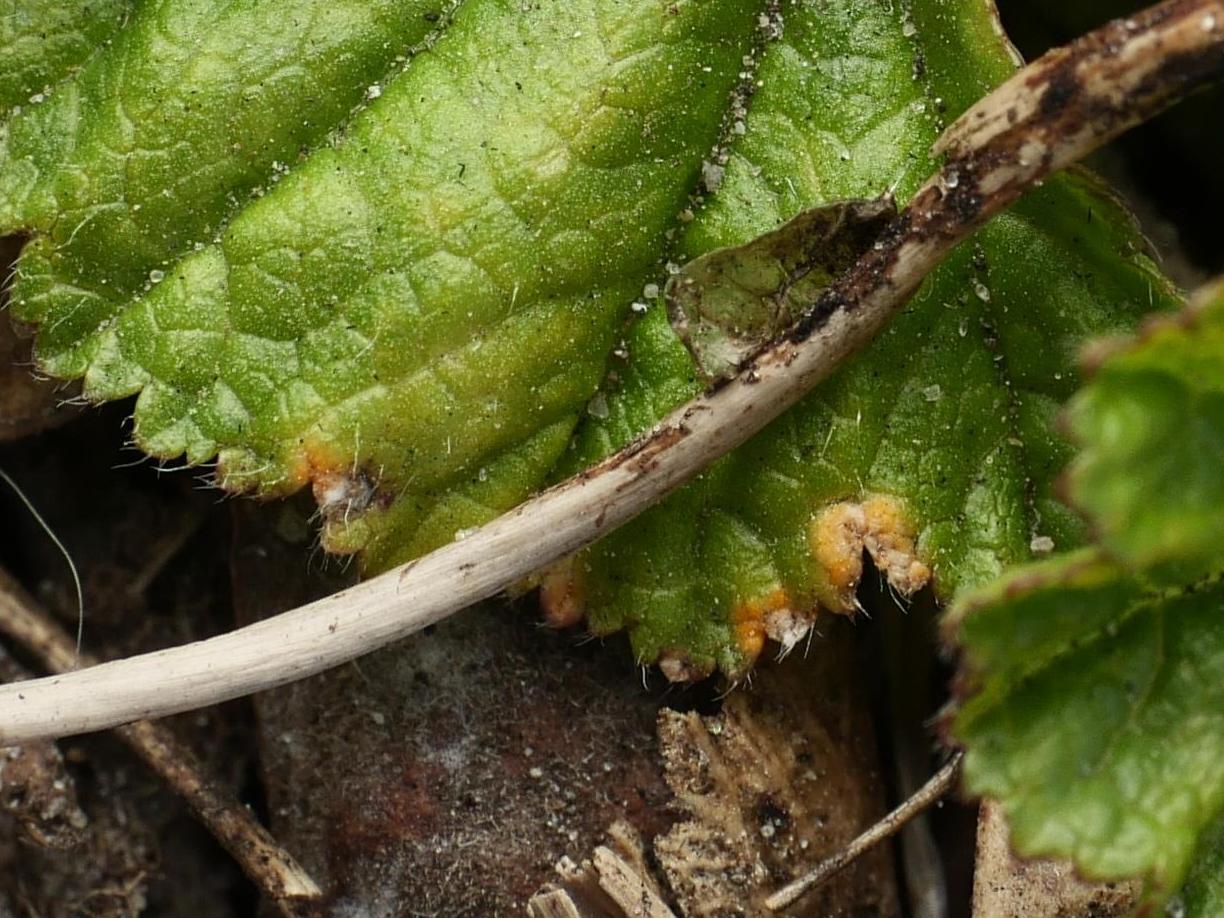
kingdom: Fungi
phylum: Basidiomycota
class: Pucciniomycetes
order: Pucciniales
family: Pucciniaceae
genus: Puccinia
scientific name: Puccinia malvacearum
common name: Hollyhock rust
